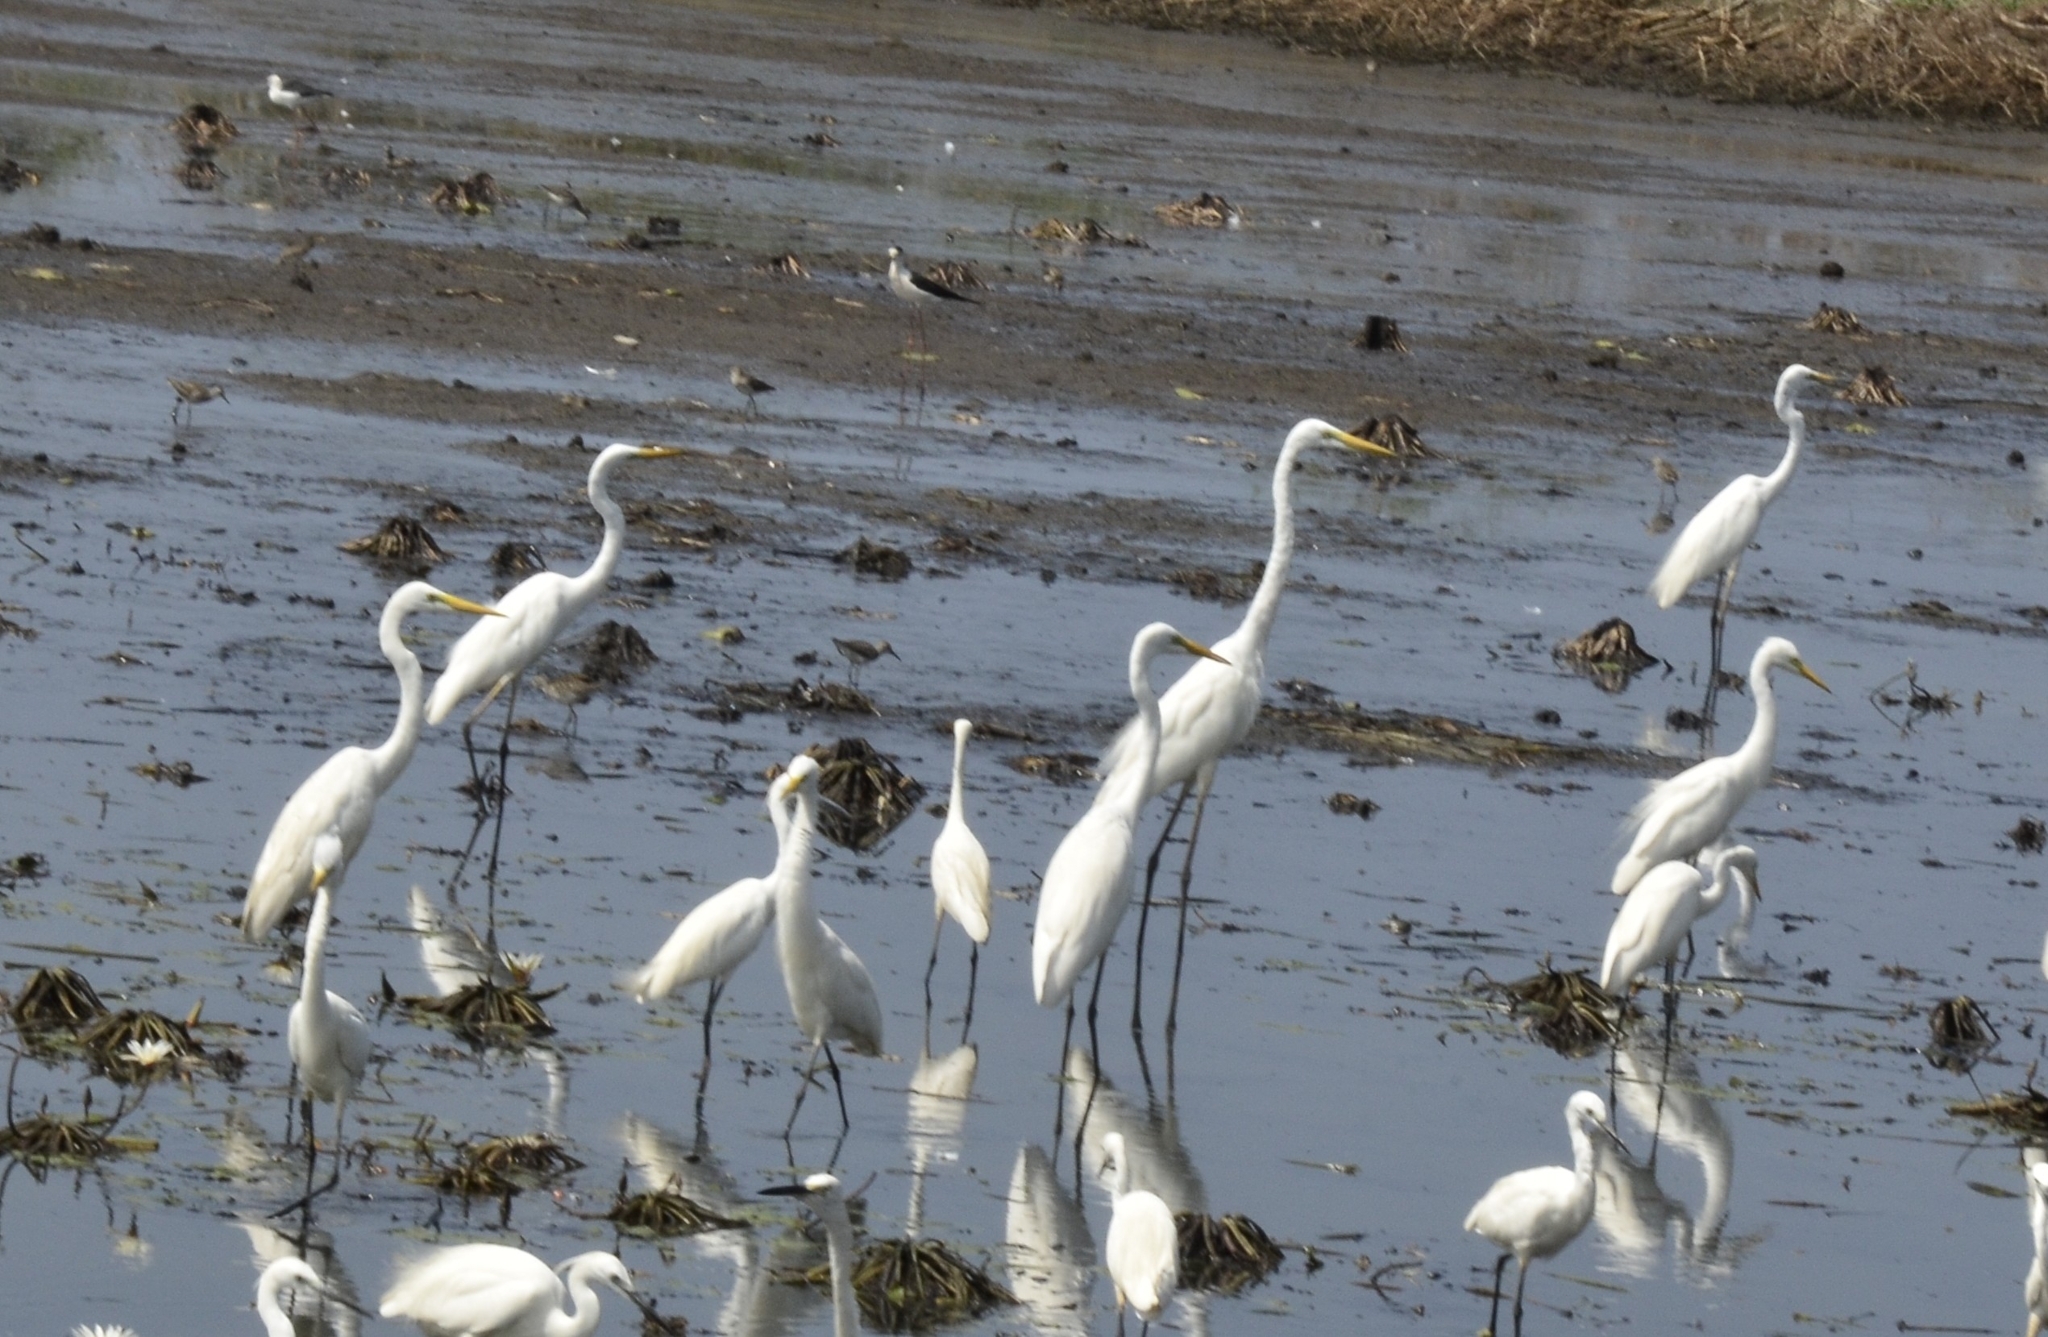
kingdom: Animalia
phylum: Chordata
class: Aves
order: Pelecaniformes
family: Ardeidae
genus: Ardea
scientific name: Ardea alba
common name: Great egret
